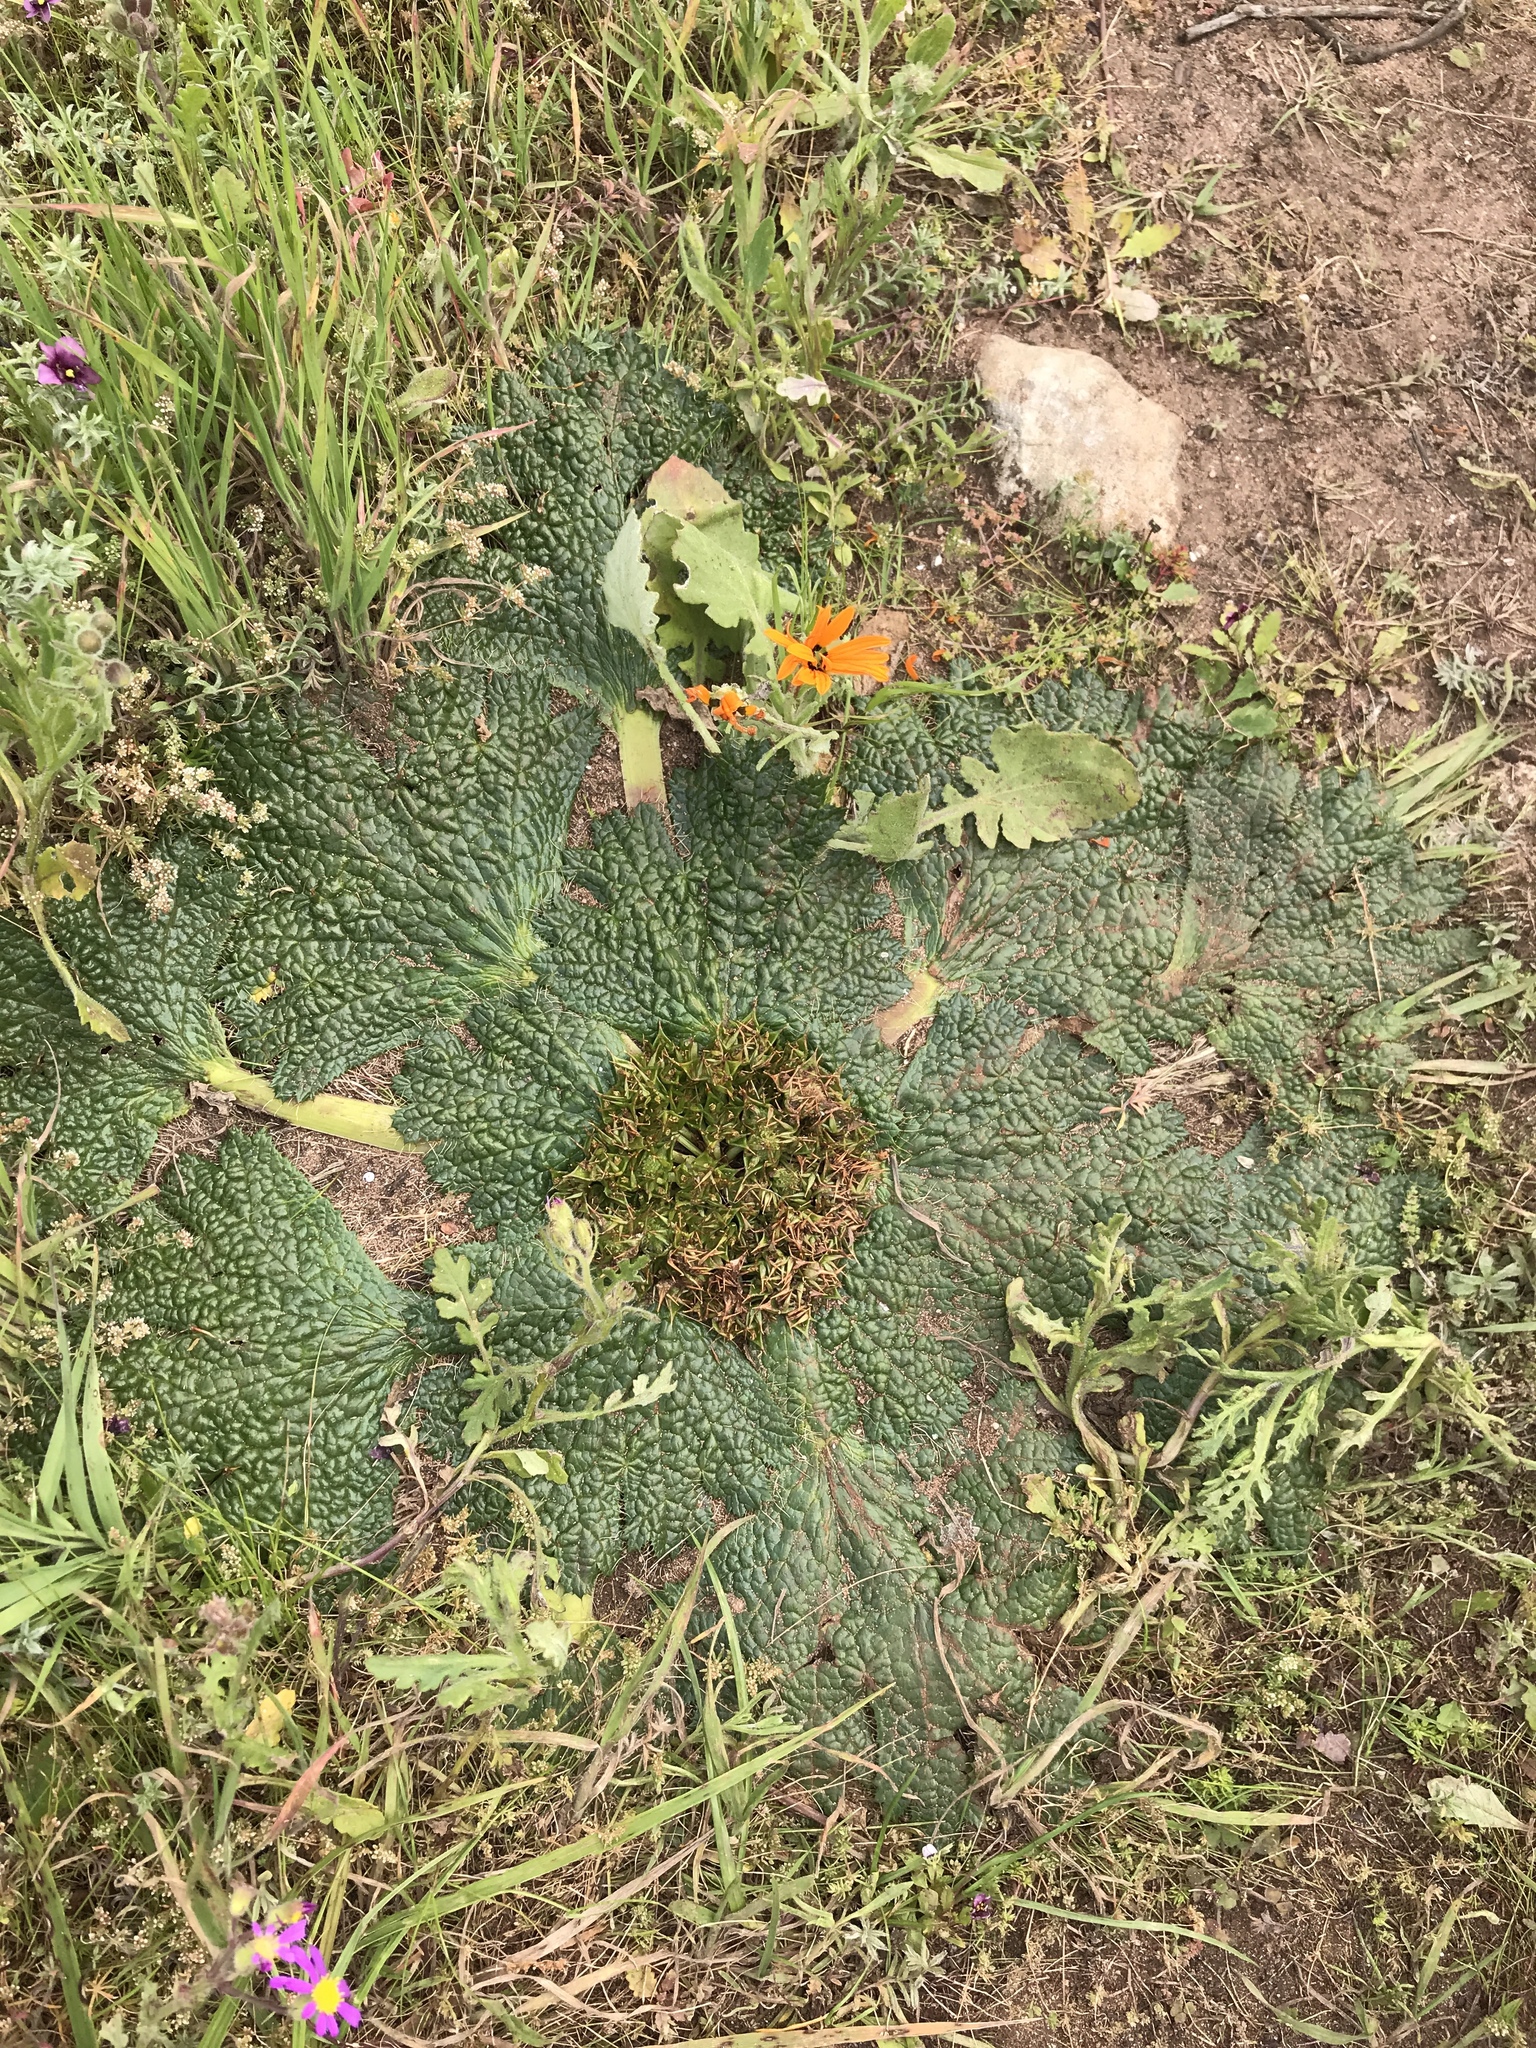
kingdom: Plantae
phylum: Tracheophyta
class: Magnoliopsida
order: Apiales
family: Apiaceae
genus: Arctopus
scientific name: Arctopus echinatus
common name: Platdoring
